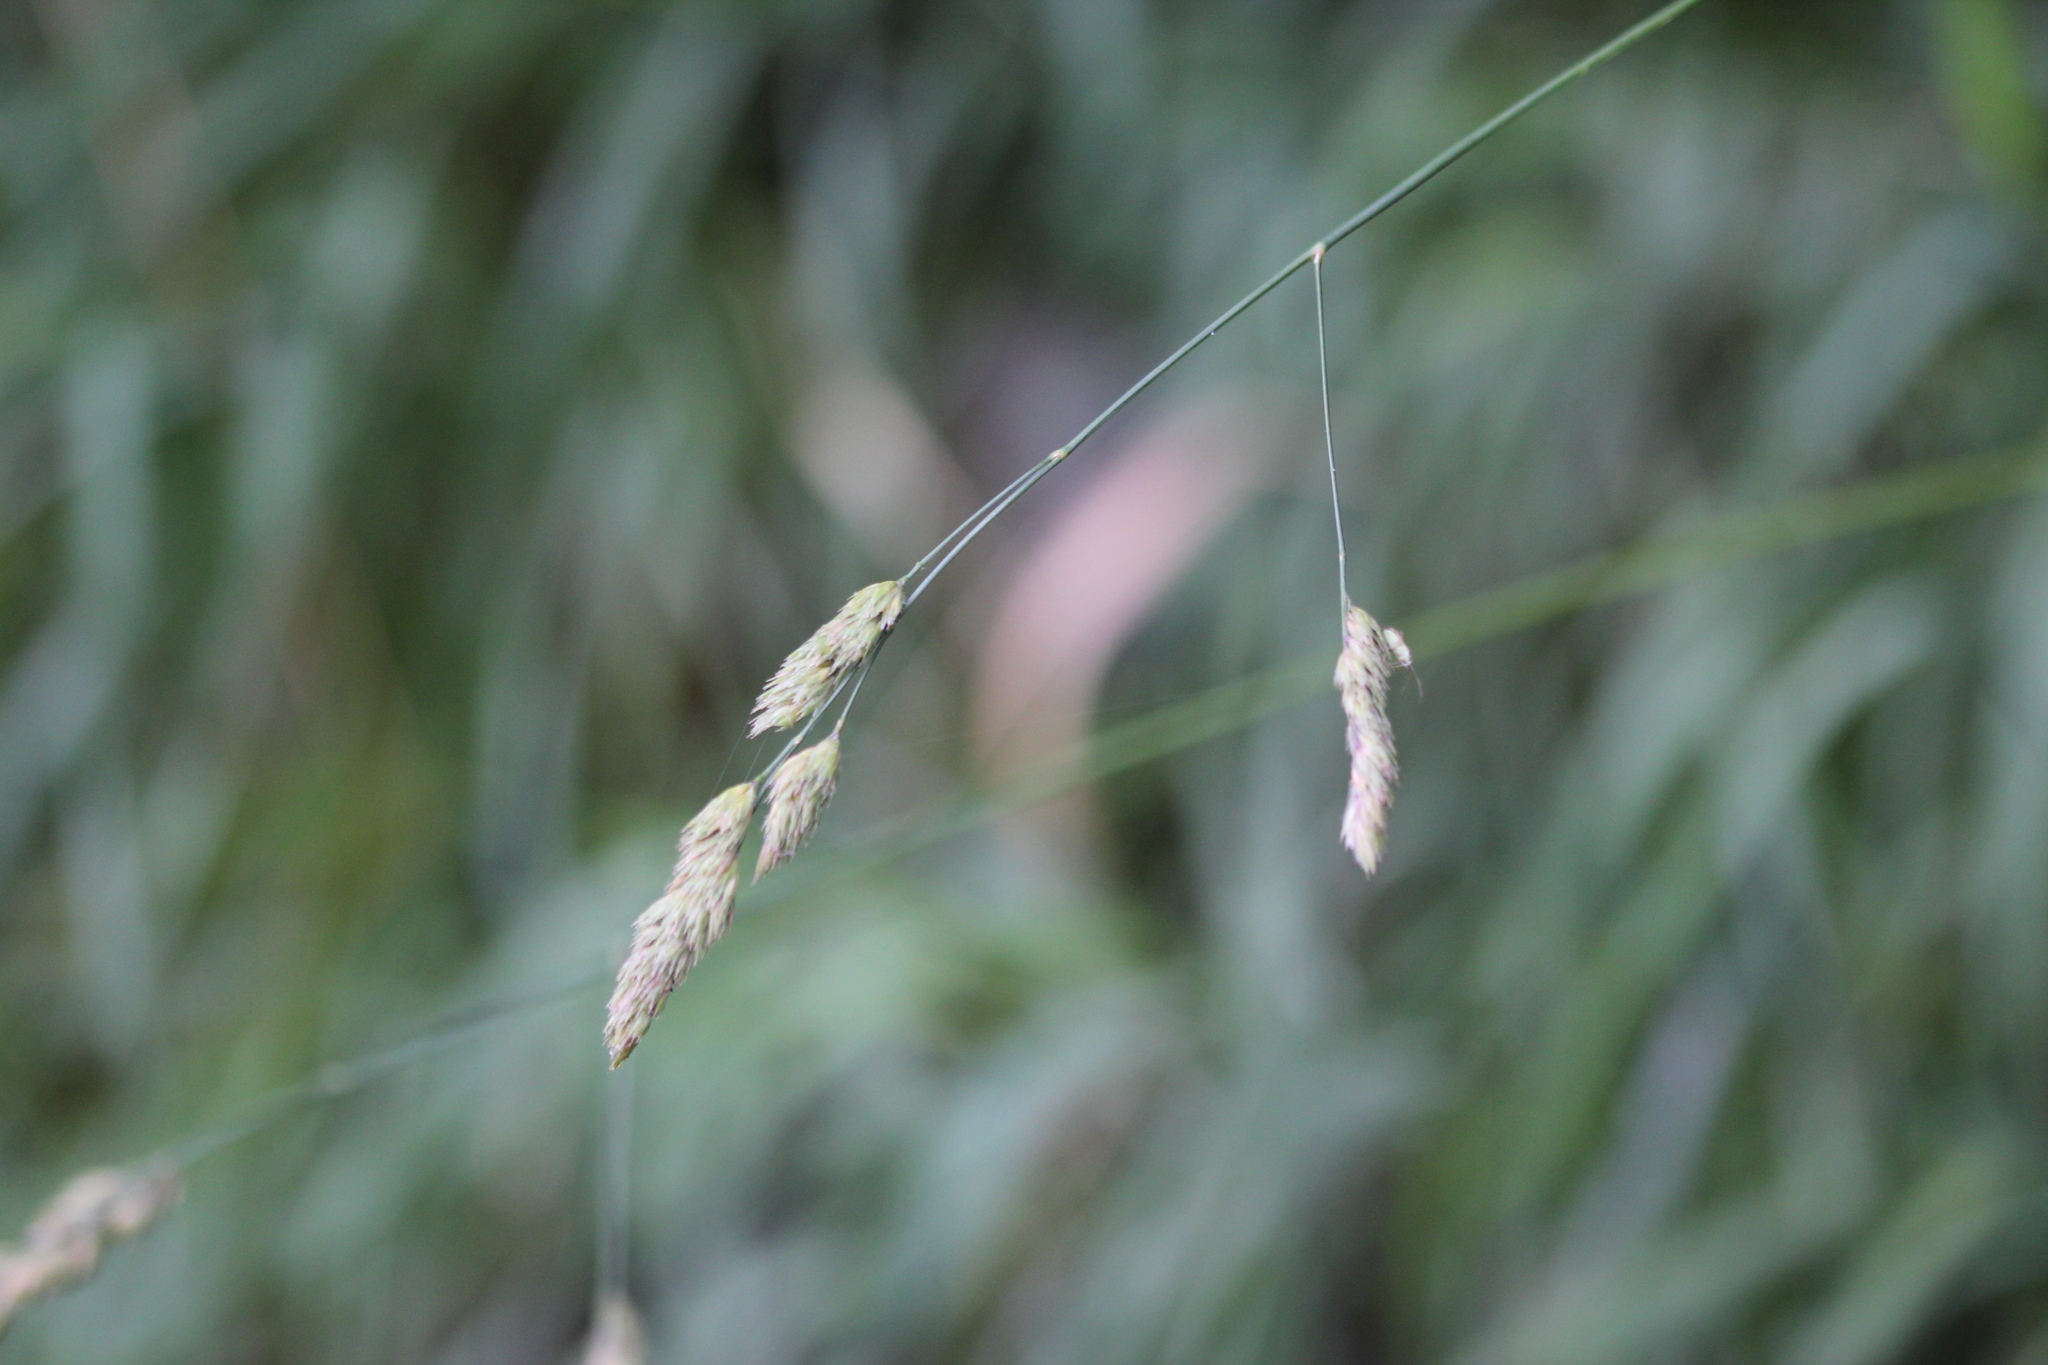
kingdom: Plantae
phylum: Tracheophyta
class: Liliopsida
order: Poales
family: Poaceae
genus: Dactylis
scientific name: Dactylis glomerata
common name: Orchardgrass
